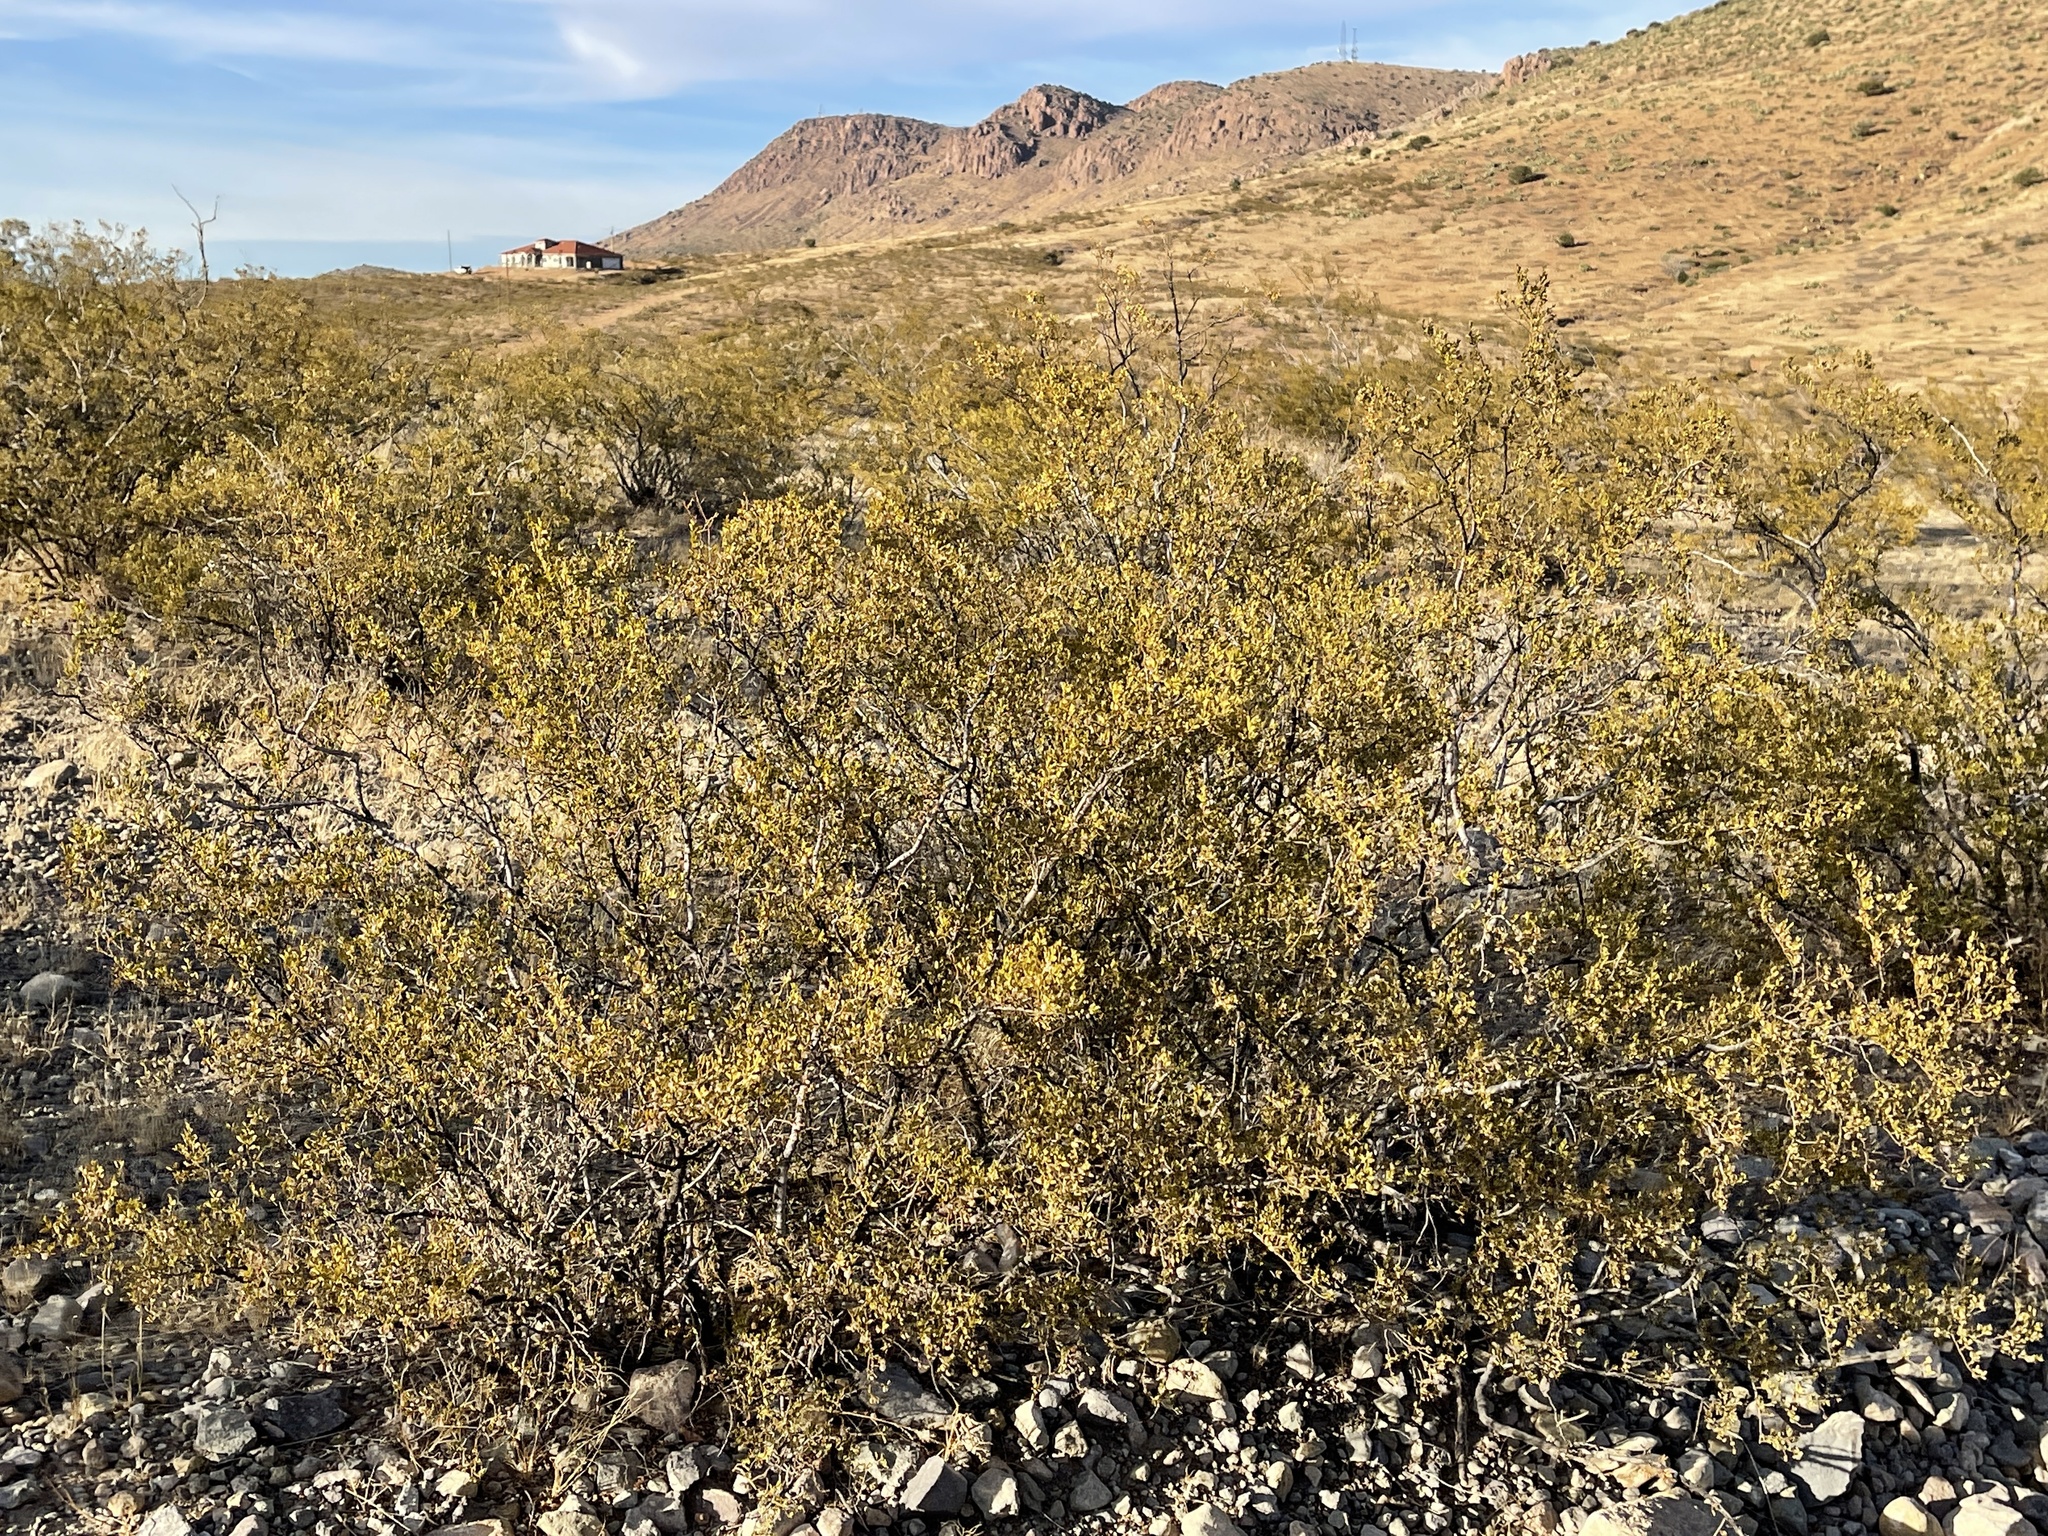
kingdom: Plantae
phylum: Tracheophyta
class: Magnoliopsida
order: Zygophyllales
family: Zygophyllaceae
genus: Larrea
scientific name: Larrea tridentata
